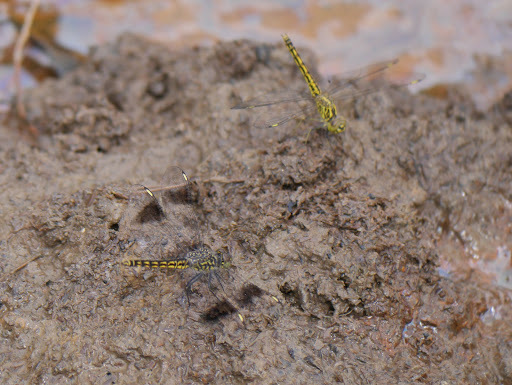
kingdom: Animalia
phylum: Arthropoda
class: Insecta
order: Odonata
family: Libellulidae
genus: Brachythemis
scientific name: Brachythemis leucosticta
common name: Banded groundling
